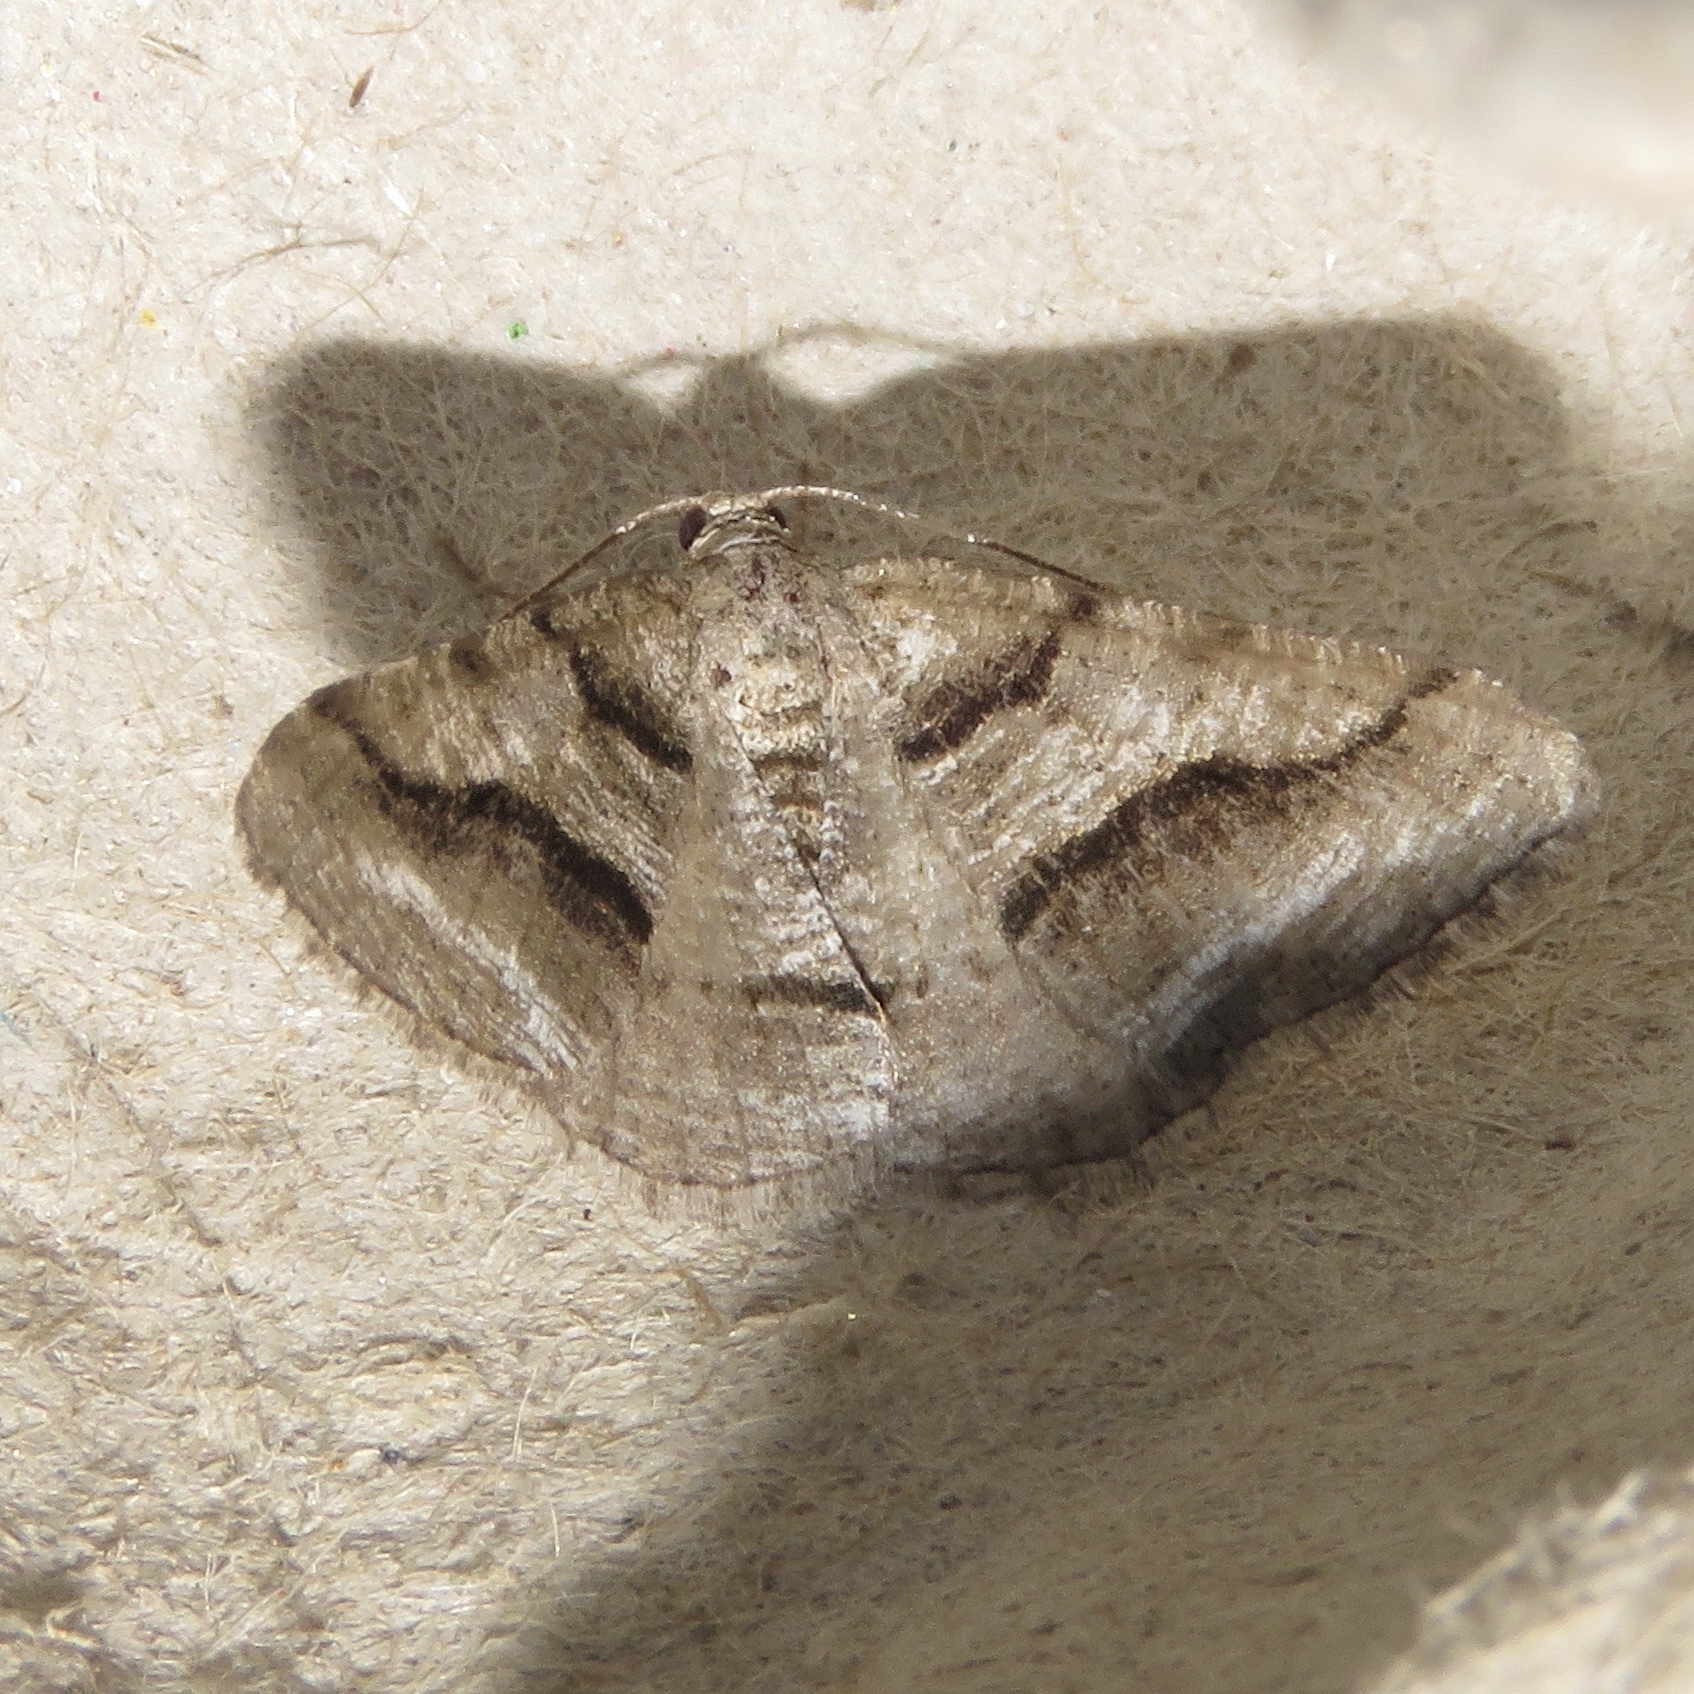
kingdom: Animalia
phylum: Arthropoda
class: Insecta
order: Lepidoptera
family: Geometridae
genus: Digrammia
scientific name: Digrammia continuata
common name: Curve-lined angle
